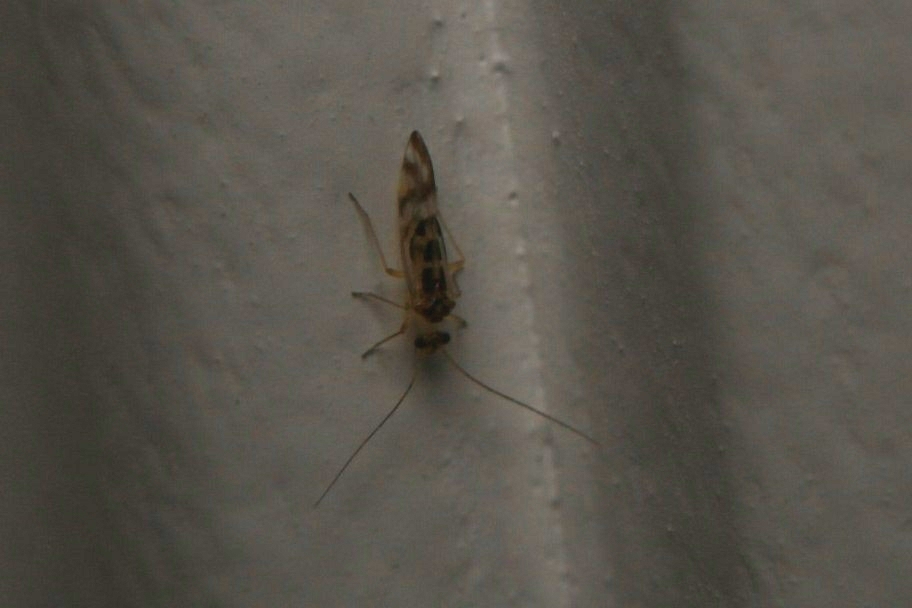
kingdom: Animalia
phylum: Arthropoda
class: Insecta
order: Psocodea
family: Stenopsocidae
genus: Graphopsocus
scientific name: Graphopsocus cruciatus
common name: Lizard bark louse
